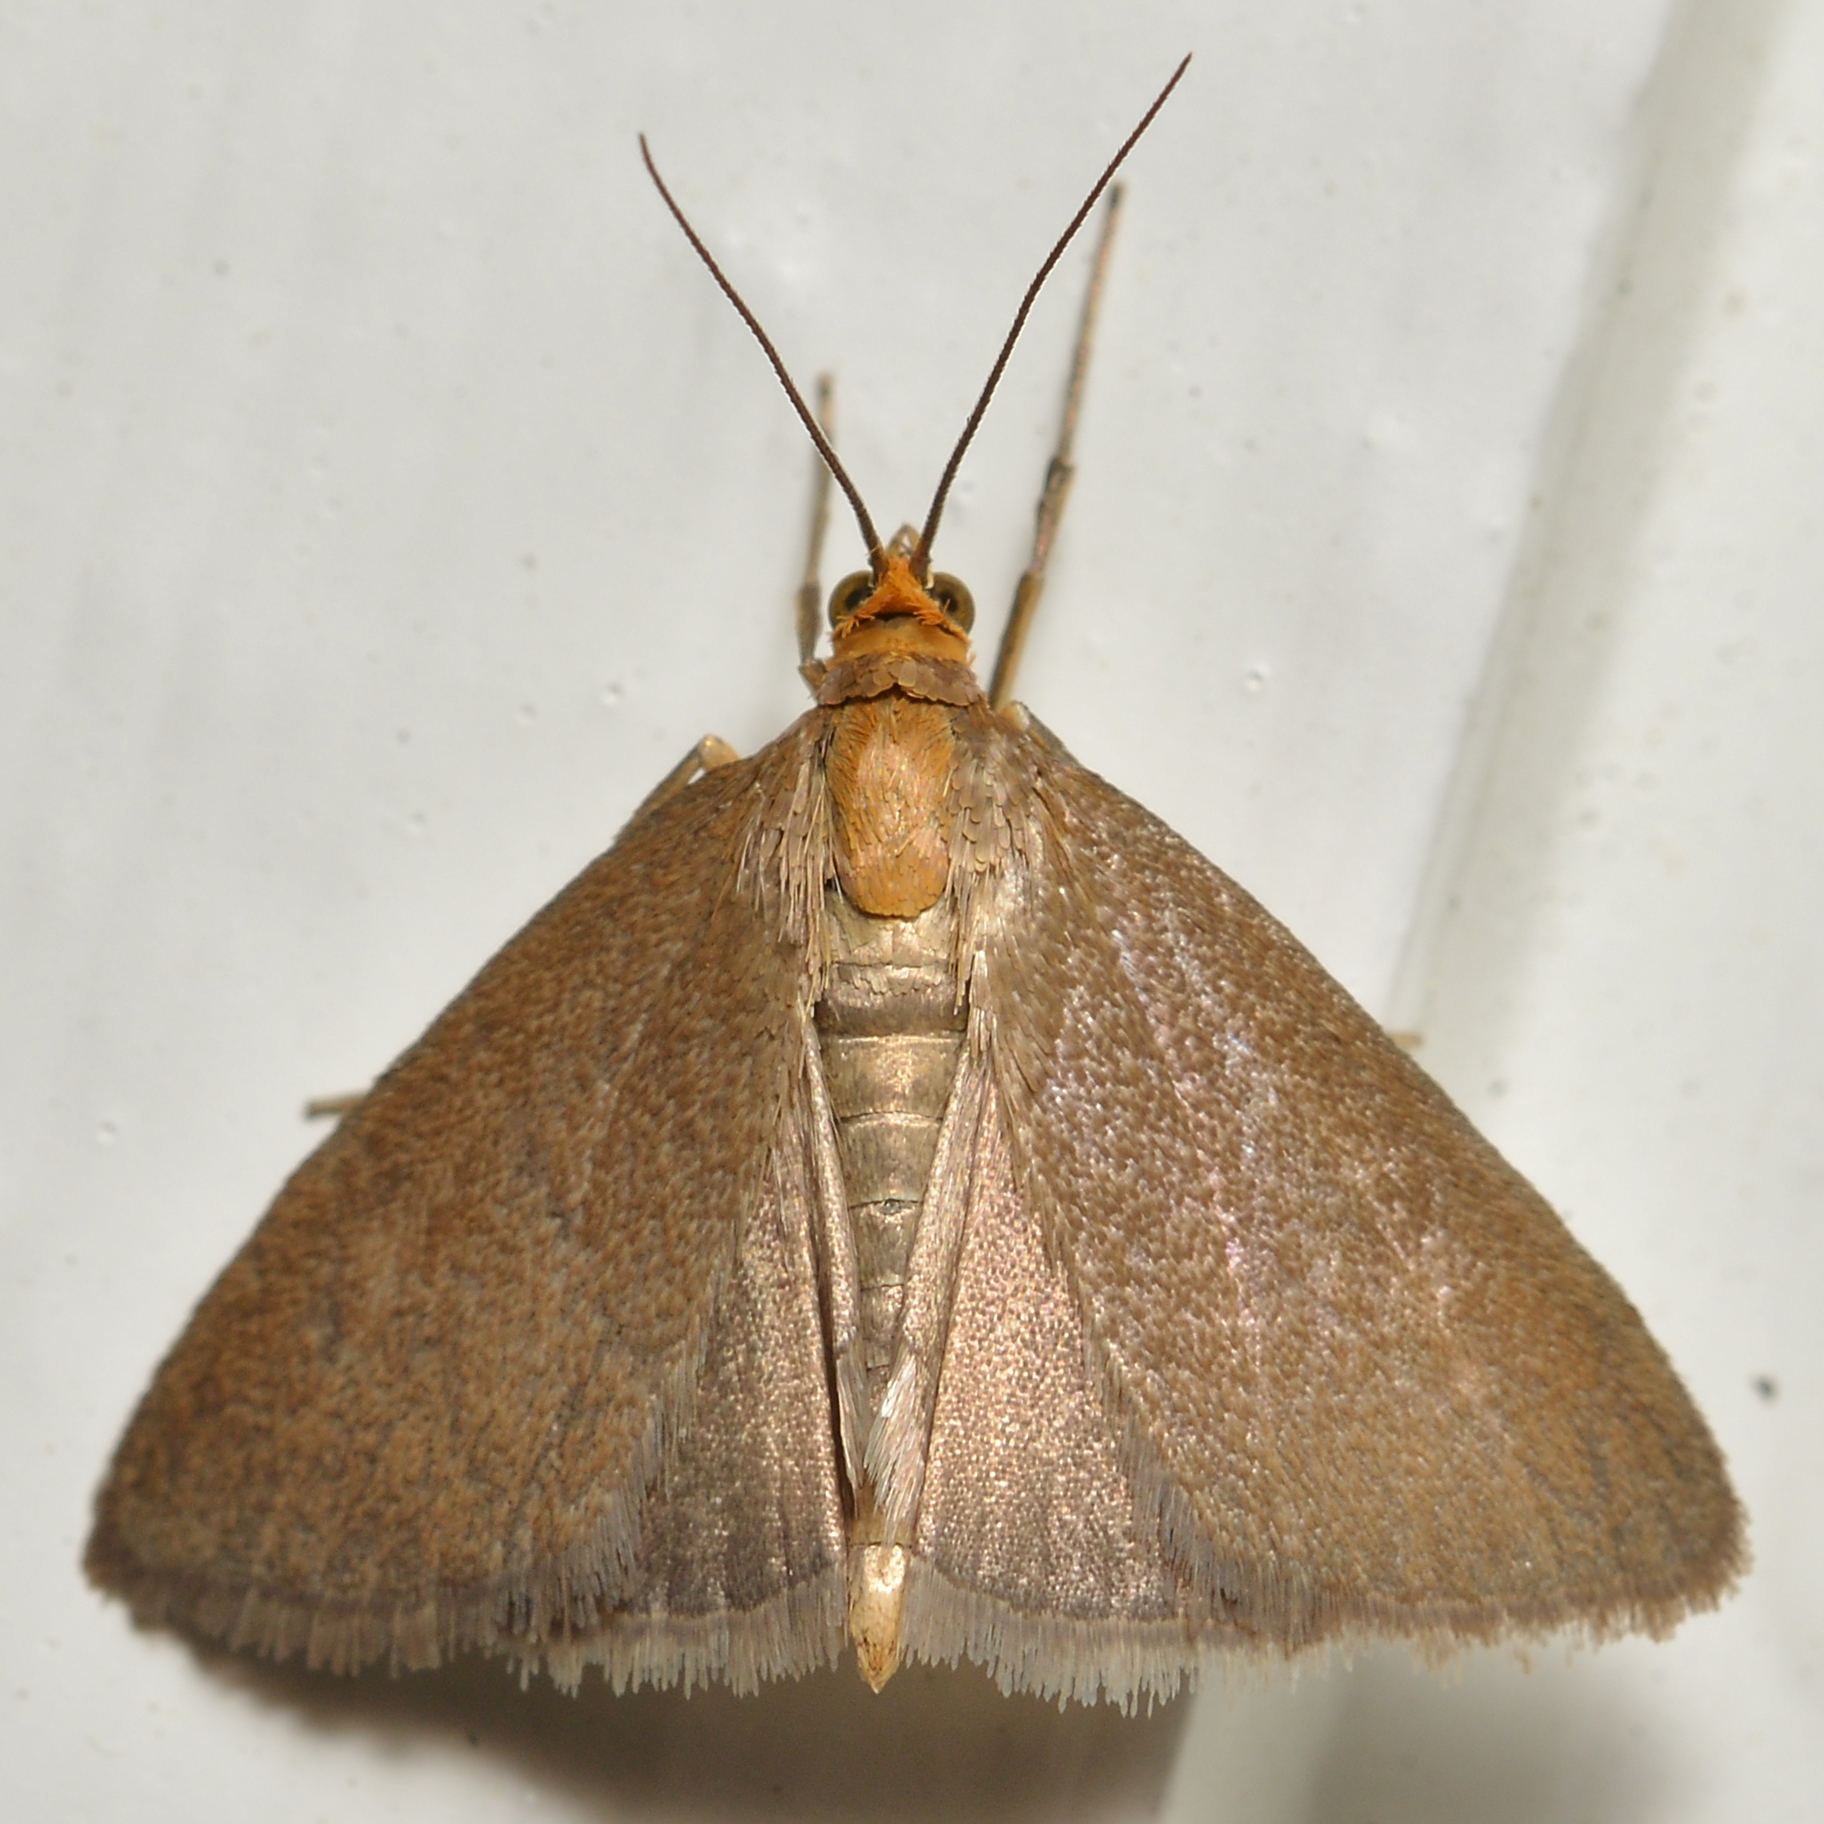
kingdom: Animalia
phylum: Arthropoda
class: Insecta
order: Lepidoptera
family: Crambidae
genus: Evergestis
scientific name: Evergestis aenealis
